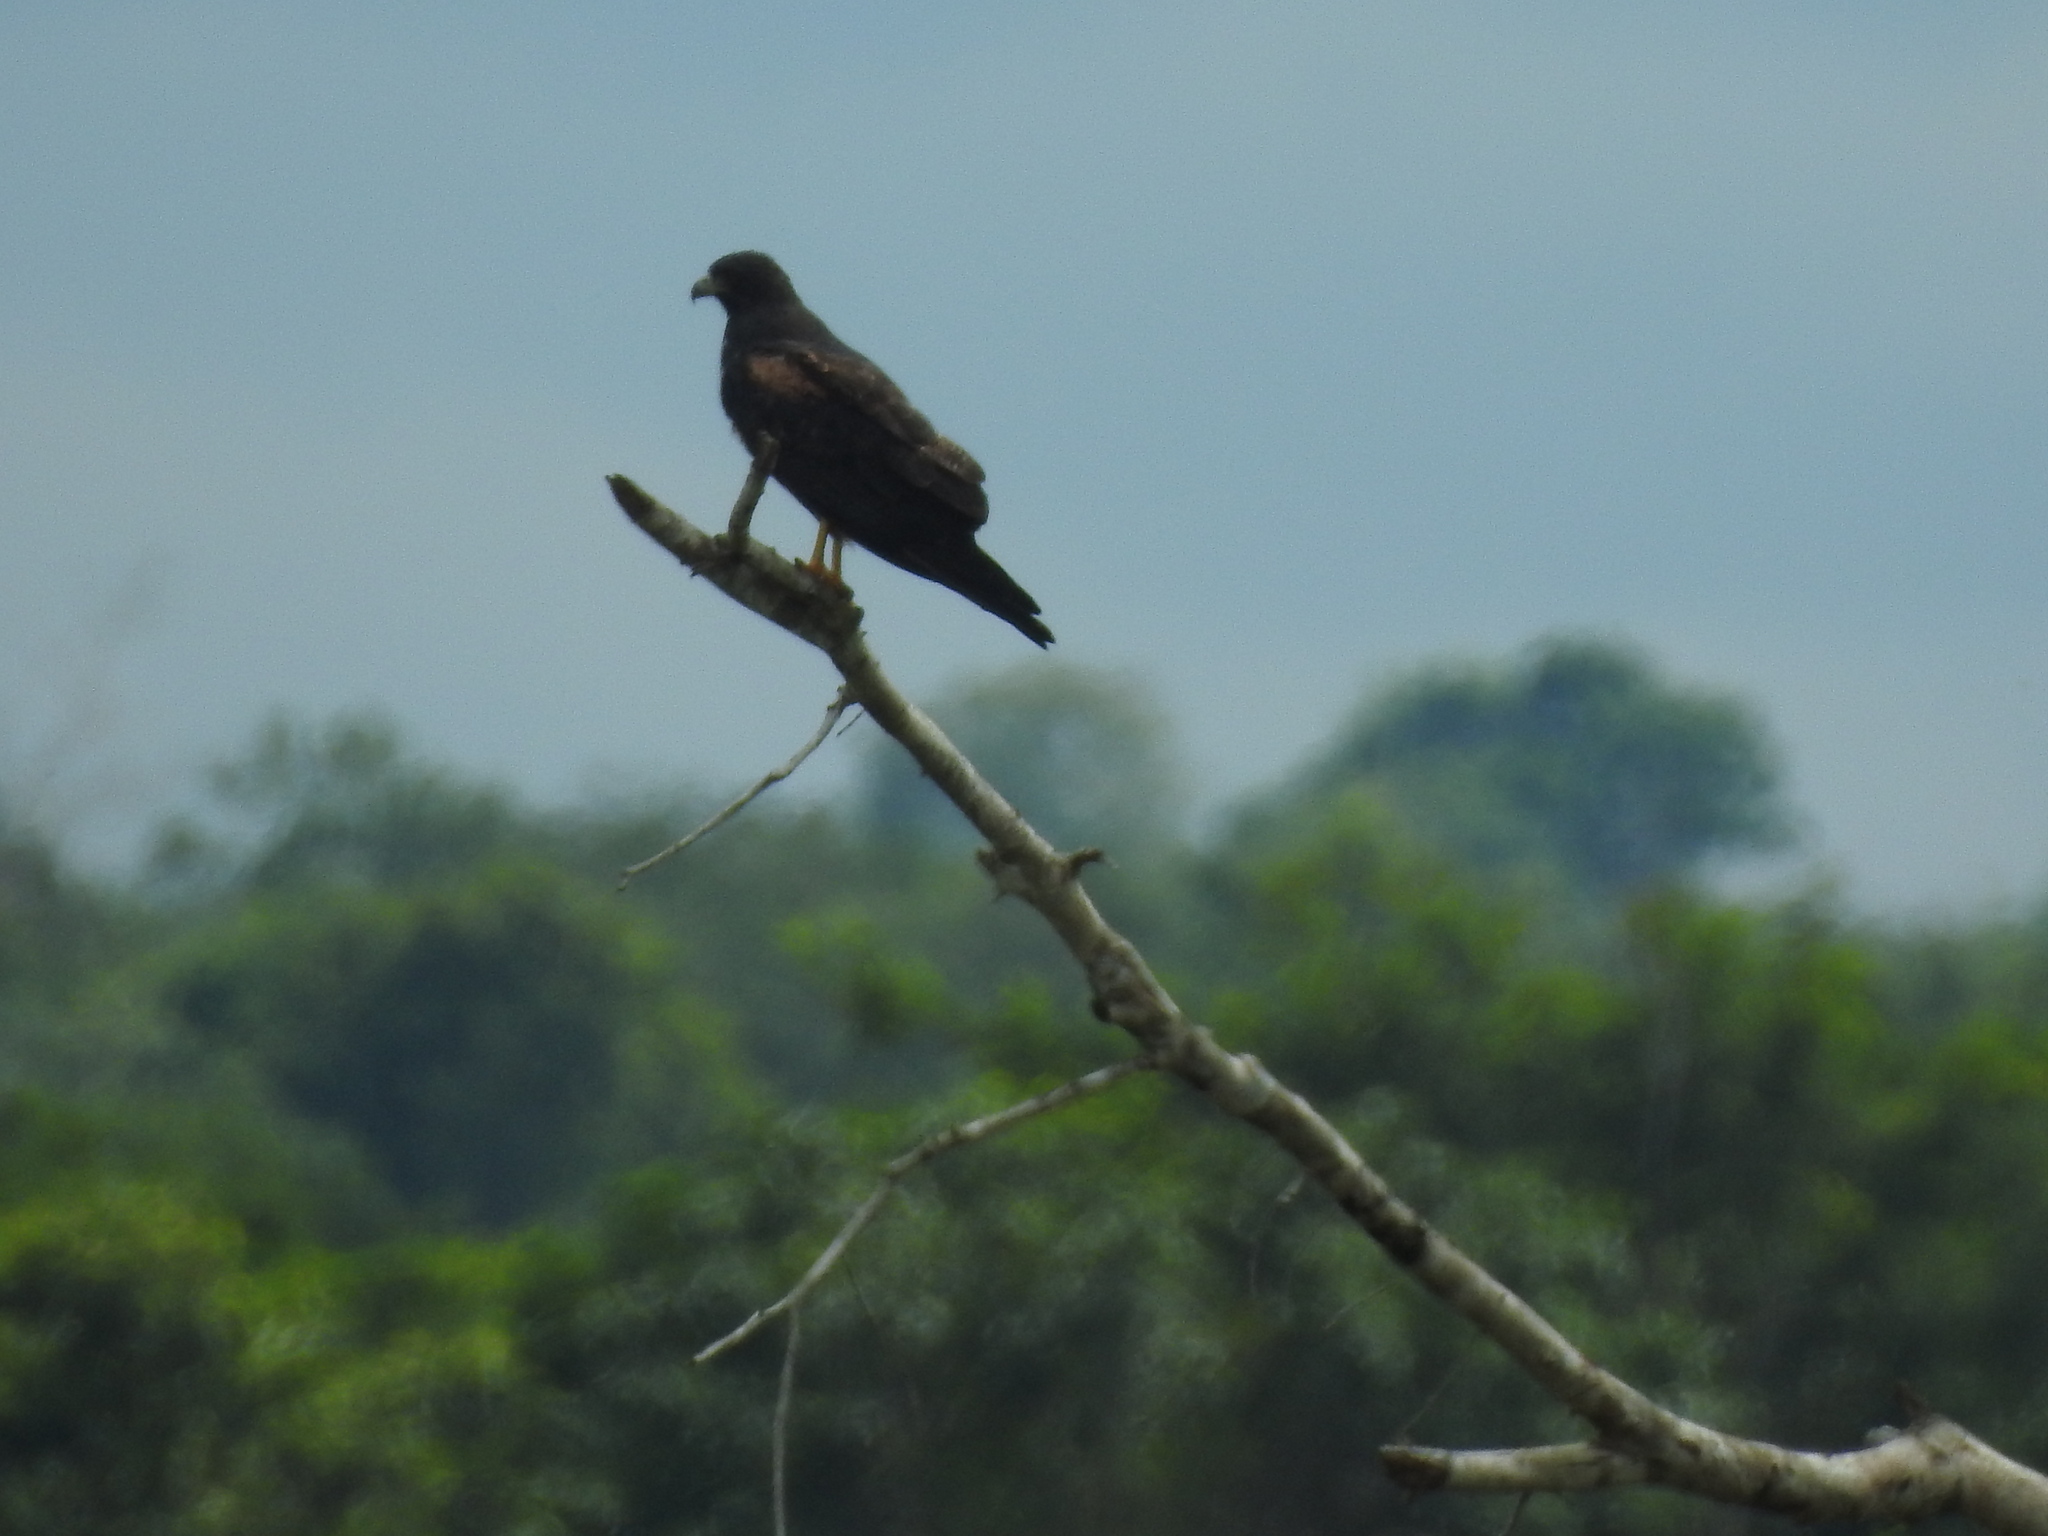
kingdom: Animalia
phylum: Chordata
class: Aves
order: Accipitriformes
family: Accipitridae
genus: Buteo
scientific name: Buteo albicaudatus
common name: White-tailed hawk
